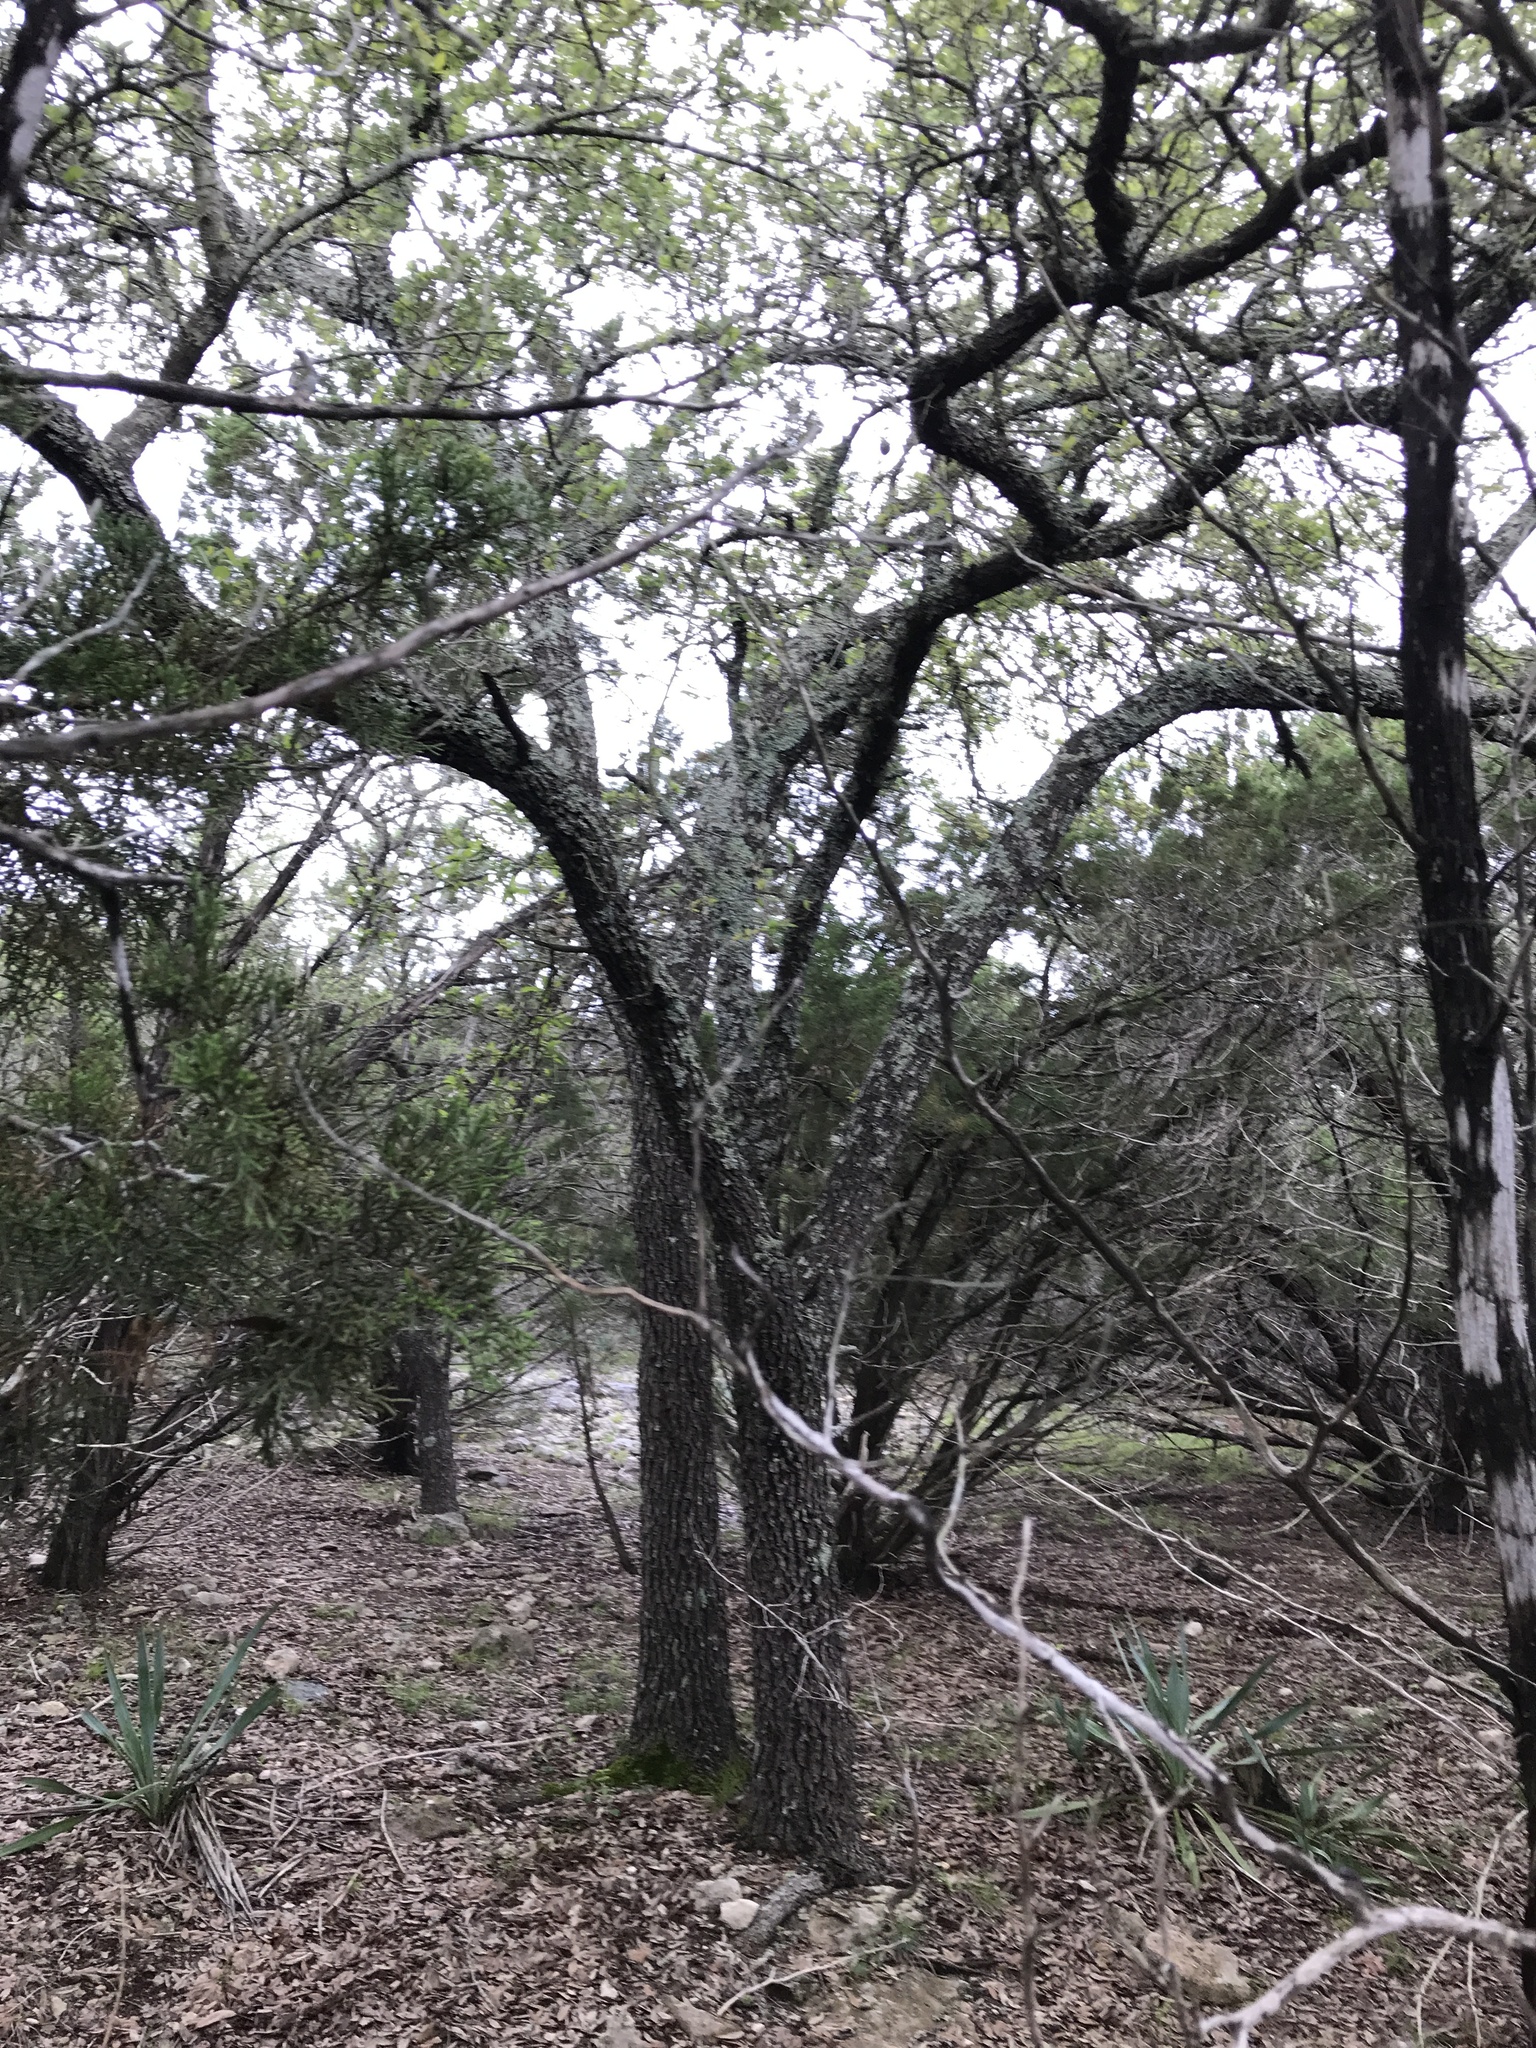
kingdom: Plantae
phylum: Tracheophyta
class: Magnoliopsida
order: Fagales
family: Fagaceae
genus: Quercus
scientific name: Quercus fusiformis
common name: Texas live oak
